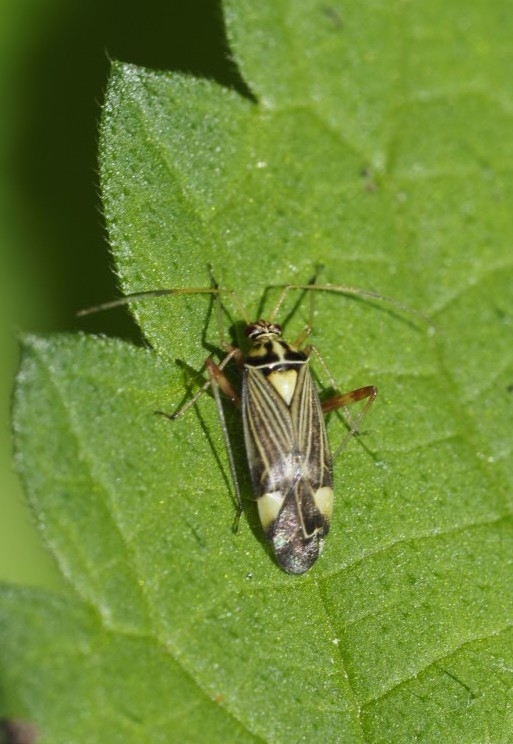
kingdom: Animalia
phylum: Arthropoda
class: Insecta
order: Hemiptera
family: Miridae
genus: Rhabdomiris
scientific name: Rhabdomiris striatellus
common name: Plant bug
